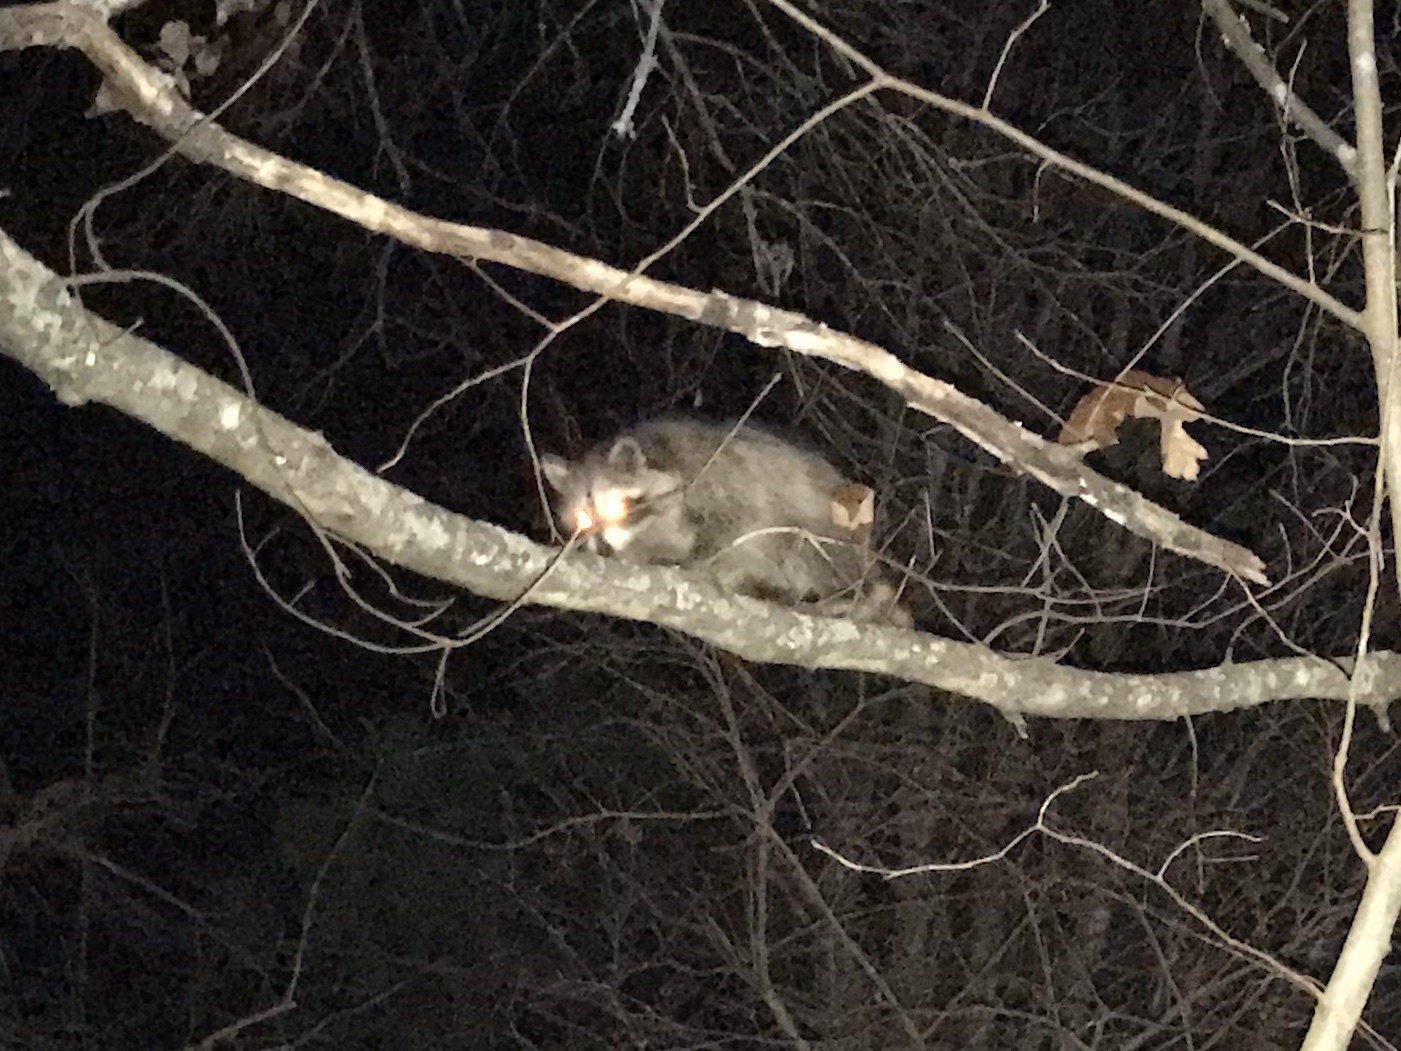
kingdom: Animalia
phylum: Chordata
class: Mammalia
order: Carnivora
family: Procyonidae
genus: Procyon
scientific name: Procyon lotor
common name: Raccoon
